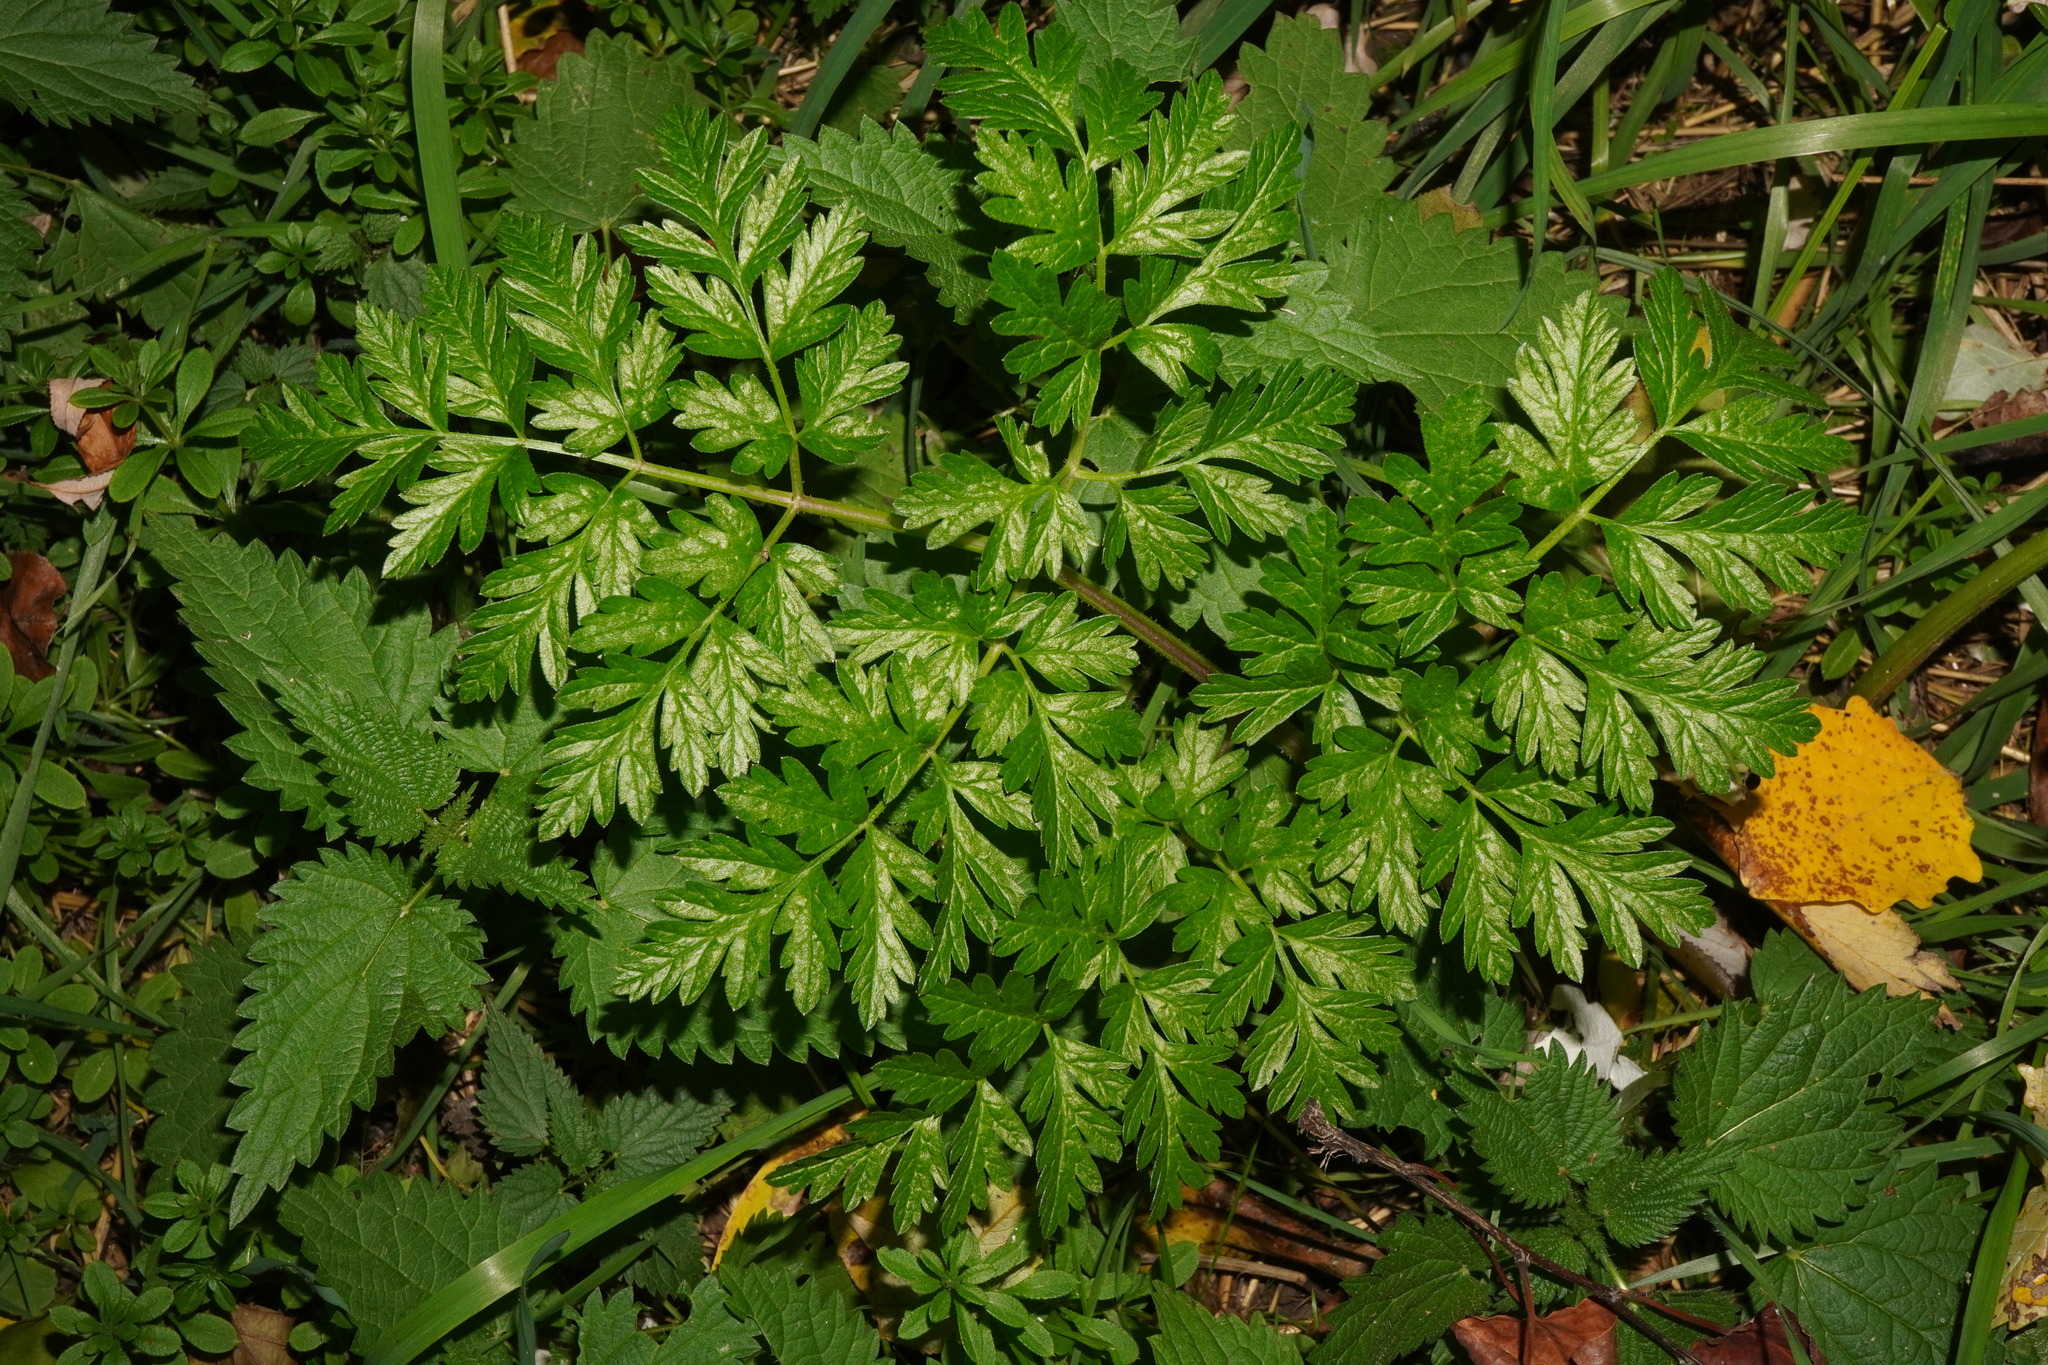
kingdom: Plantae
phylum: Tracheophyta
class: Magnoliopsida
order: Apiales
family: Apiaceae
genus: Anthriscus
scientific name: Anthriscus sylvestris
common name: Cow parsley
